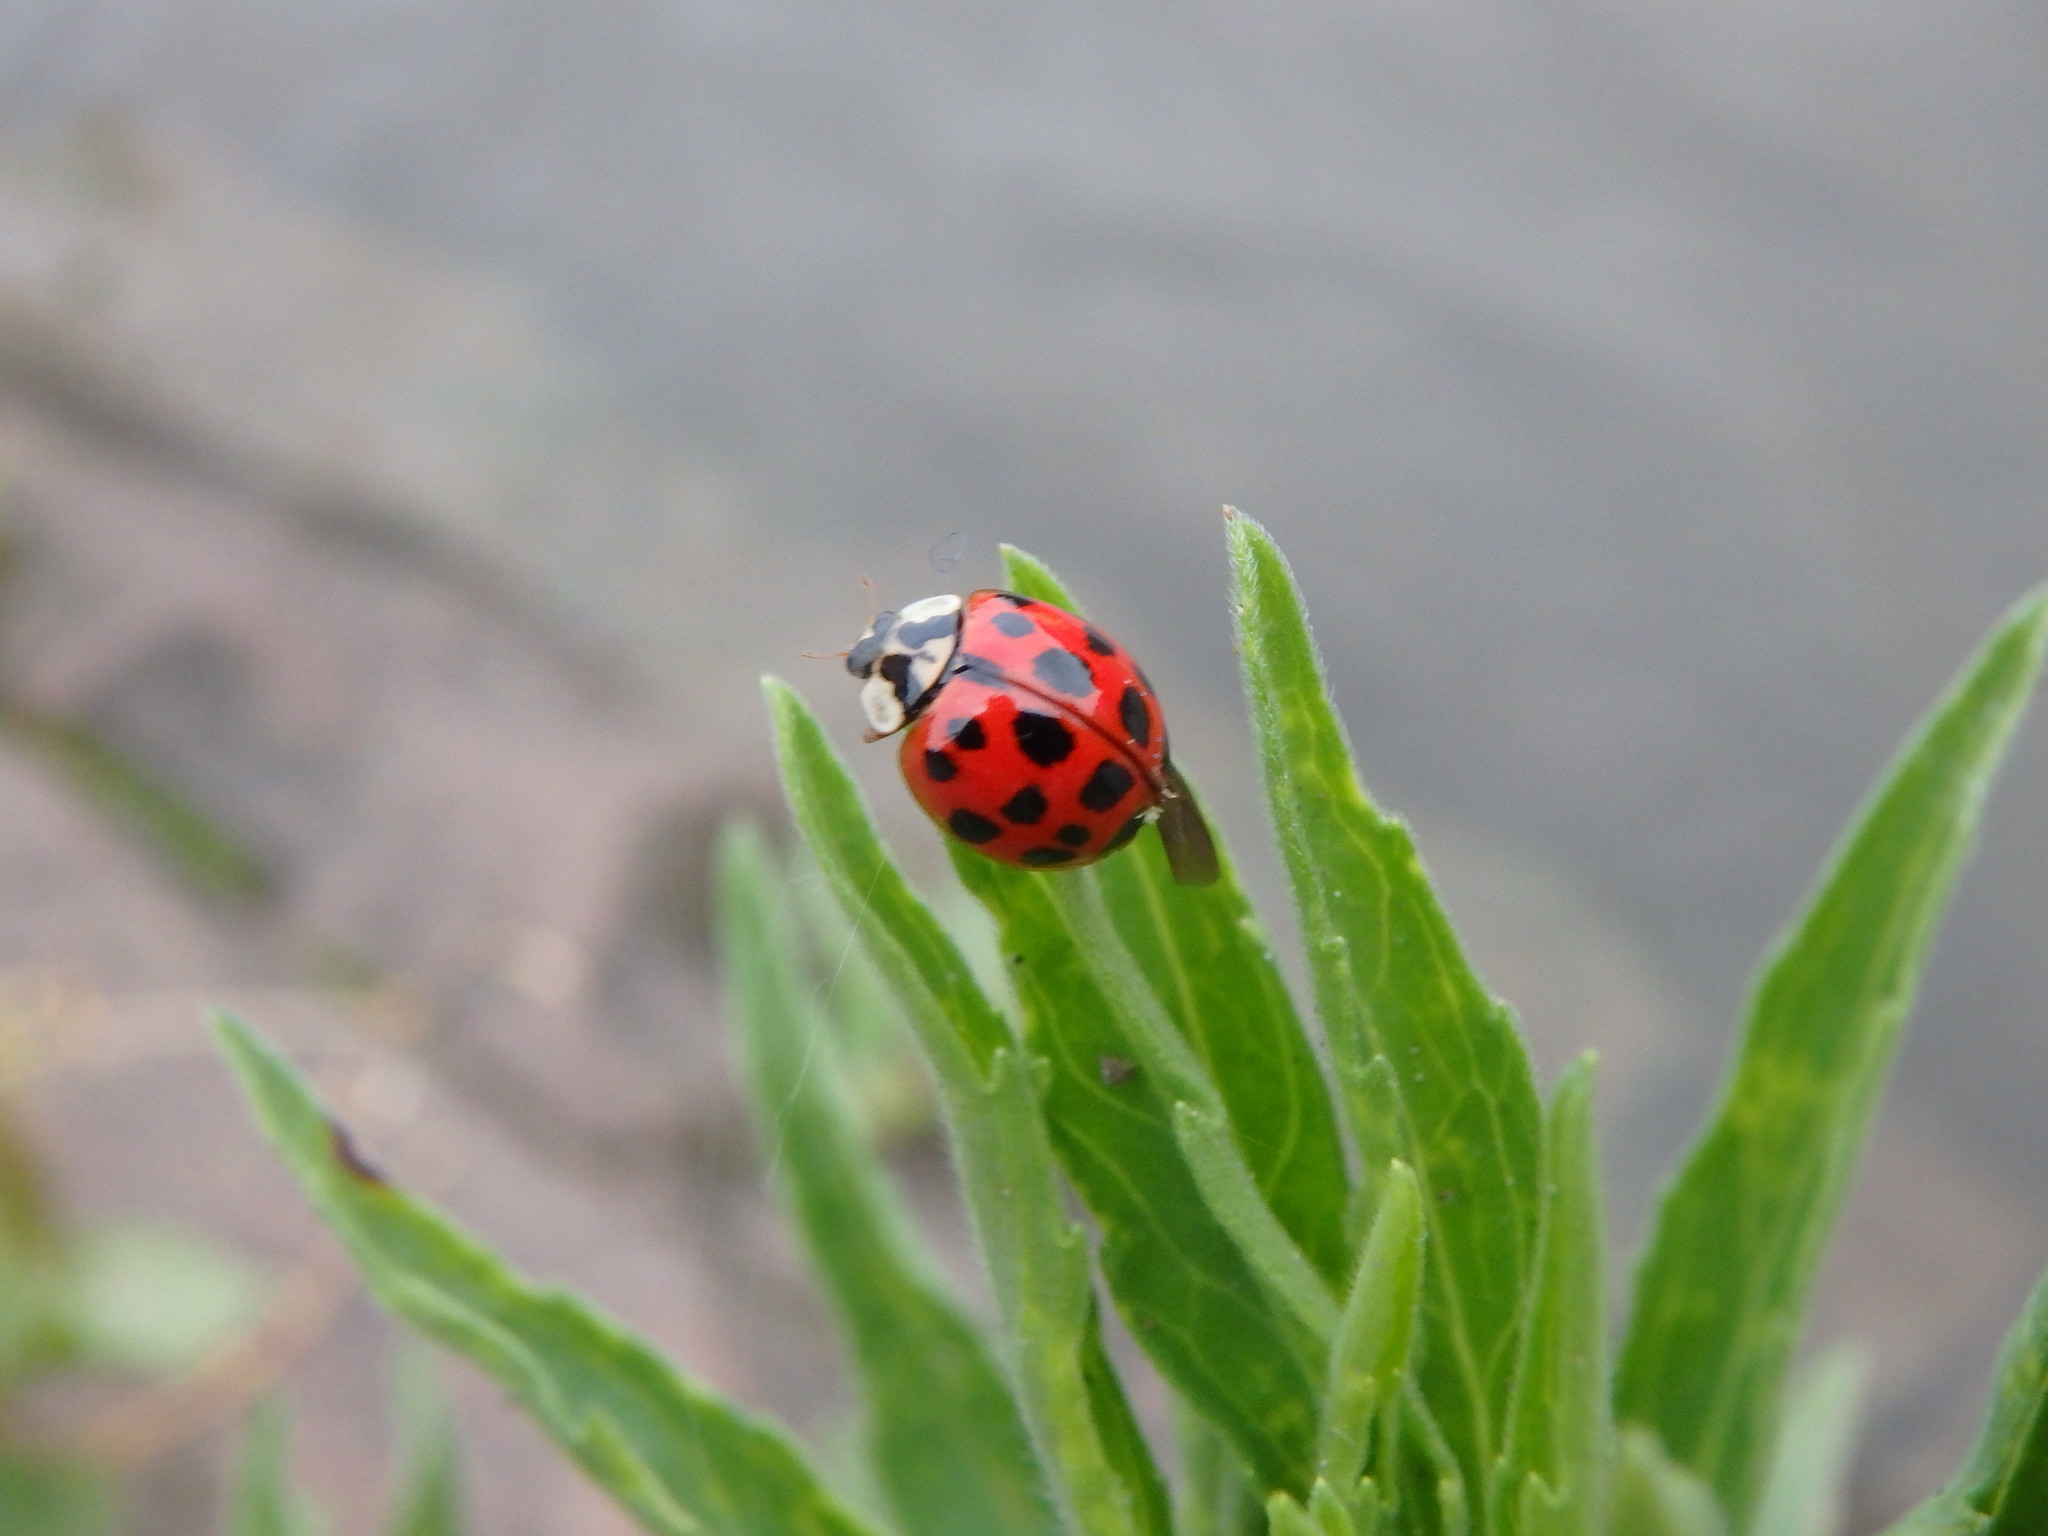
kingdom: Animalia
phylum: Arthropoda
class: Insecta
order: Coleoptera
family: Coccinellidae
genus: Harmonia
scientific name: Harmonia axyridis
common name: Harlequin ladybird
